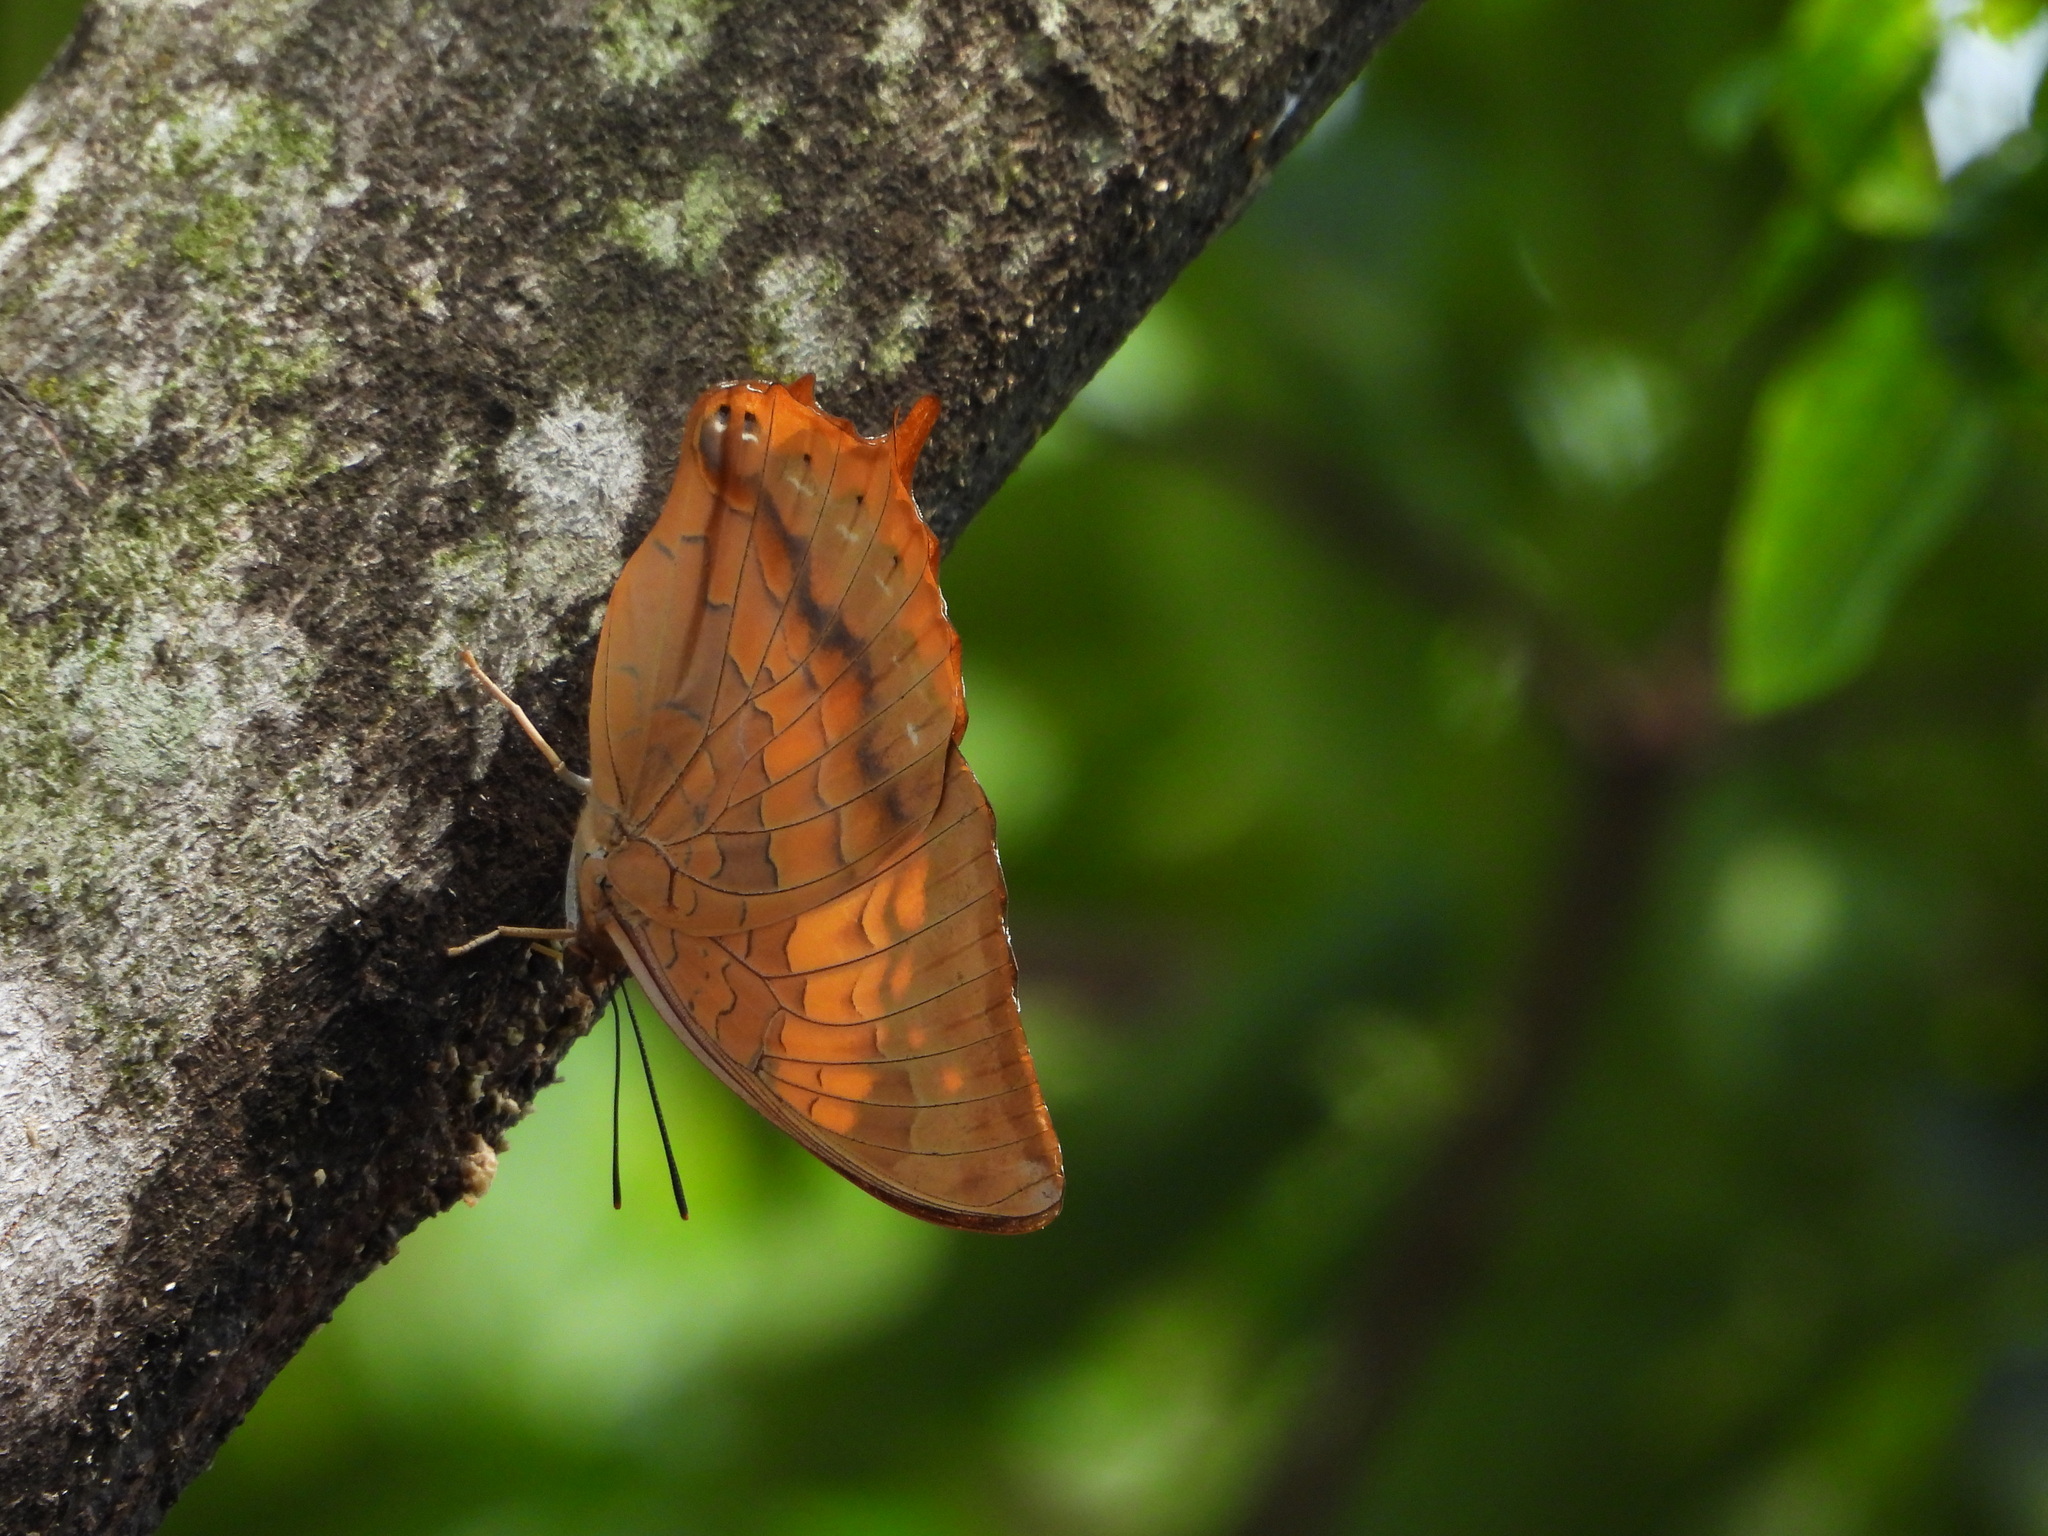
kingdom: Animalia
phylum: Arthropoda
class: Insecta
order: Lepidoptera
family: Nymphalidae
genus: Charaxes
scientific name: Charaxes bernardus
